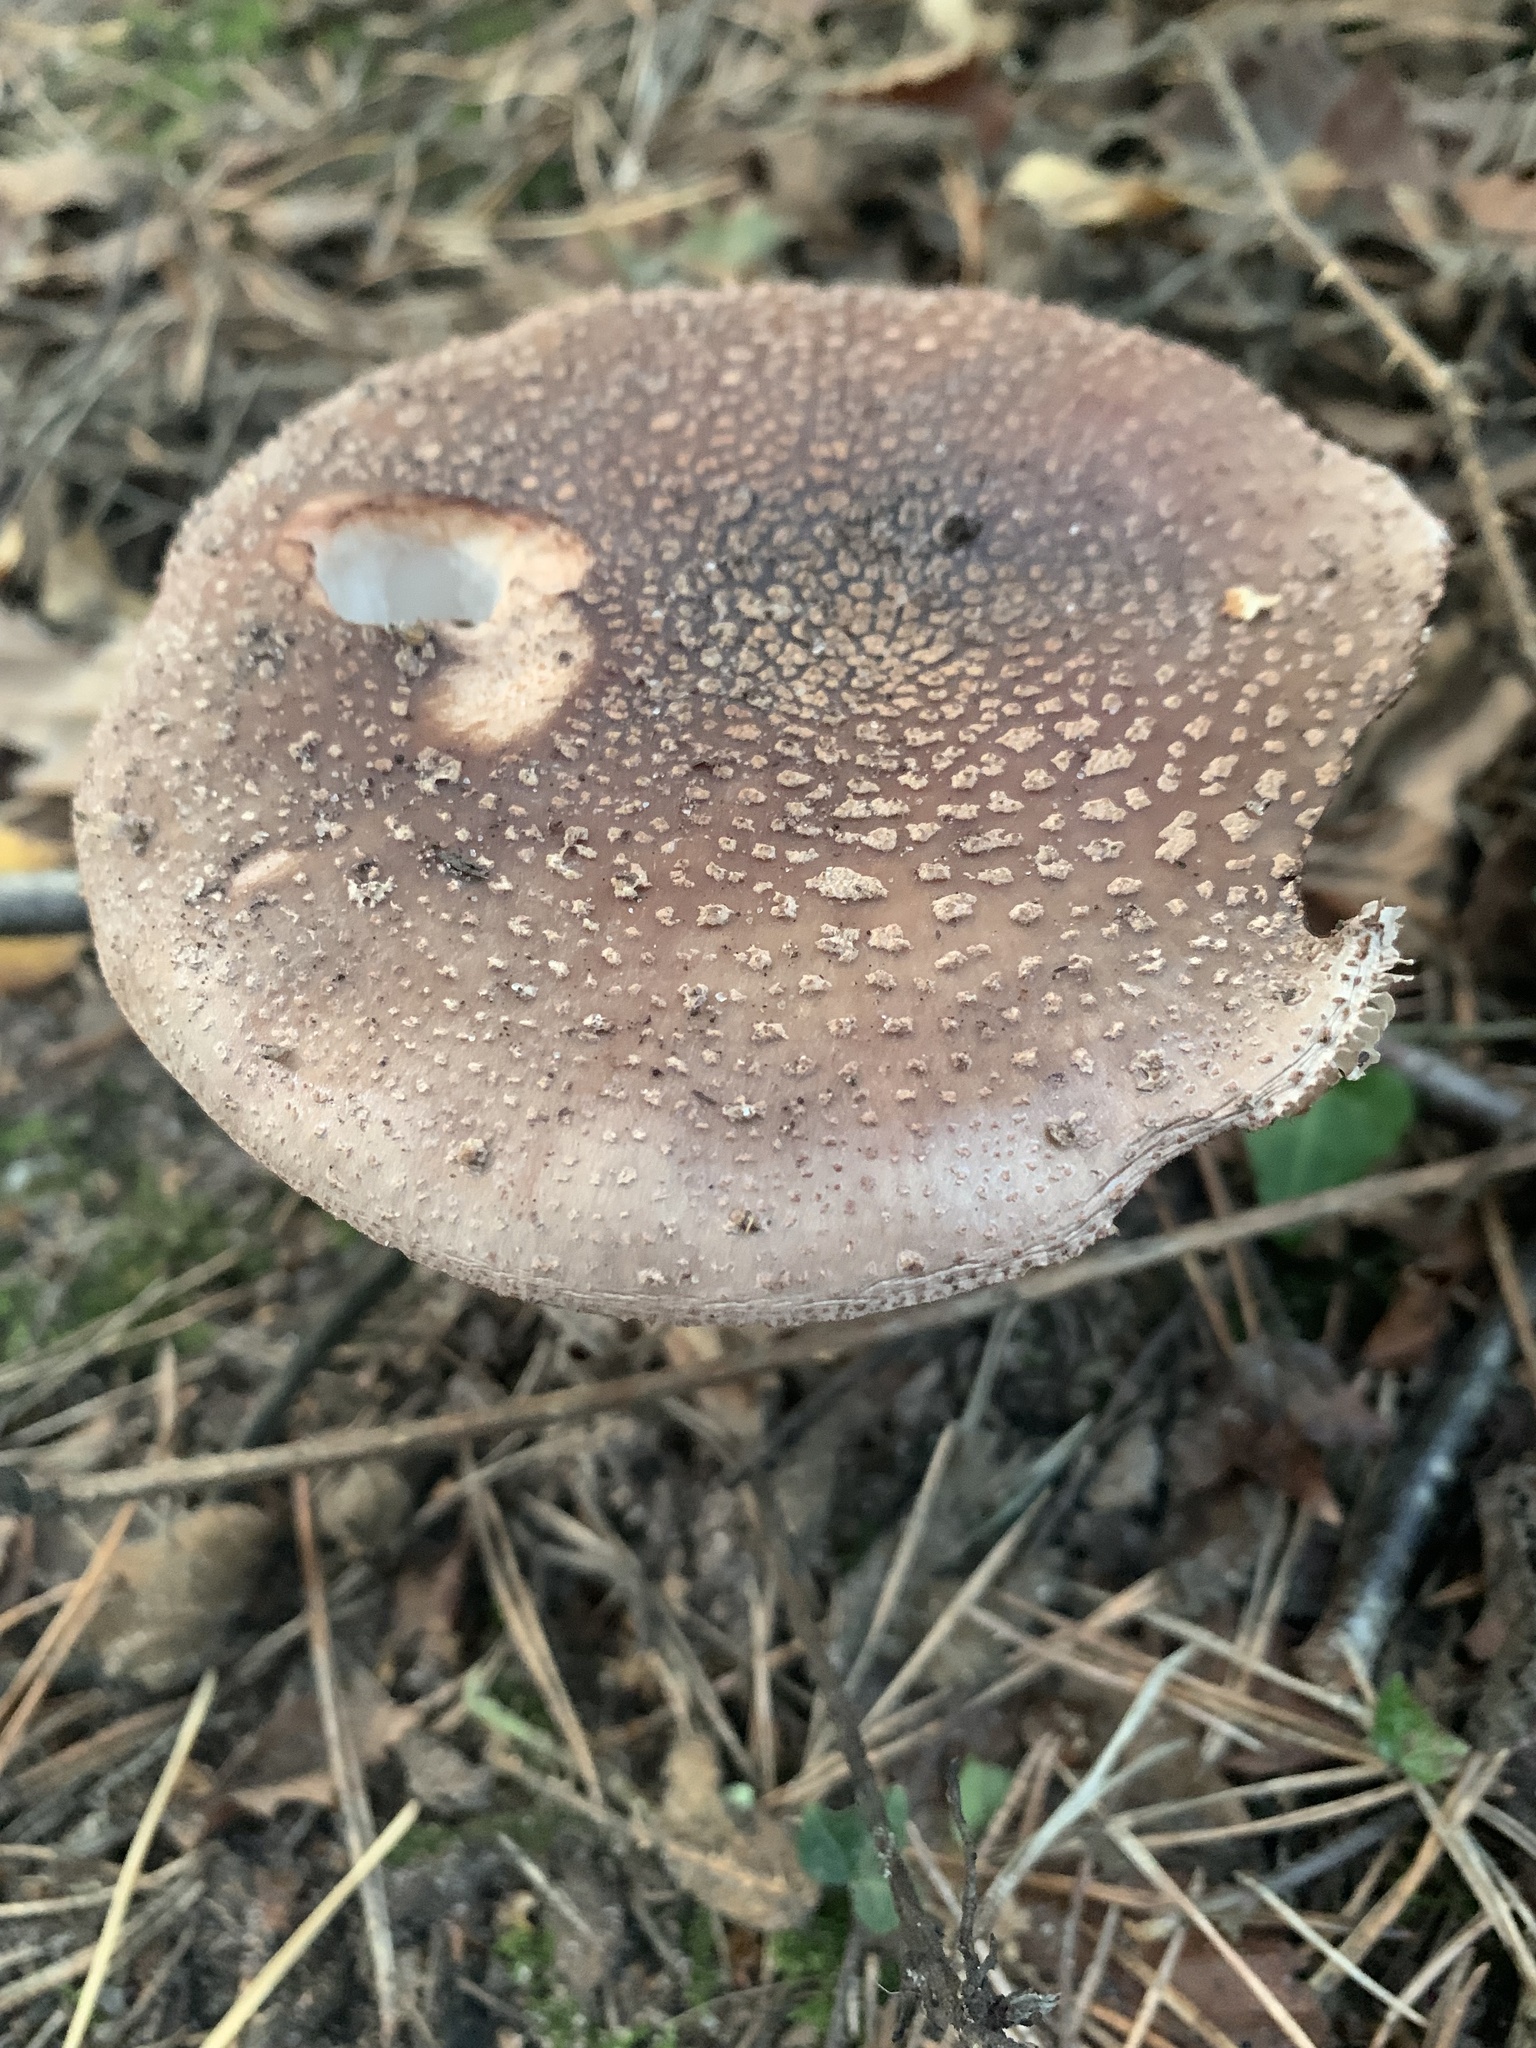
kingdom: Fungi
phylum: Basidiomycota
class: Agaricomycetes
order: Agaricales
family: Amanitaceae
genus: Amanita
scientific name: Amanita rubescens
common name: Blusher
